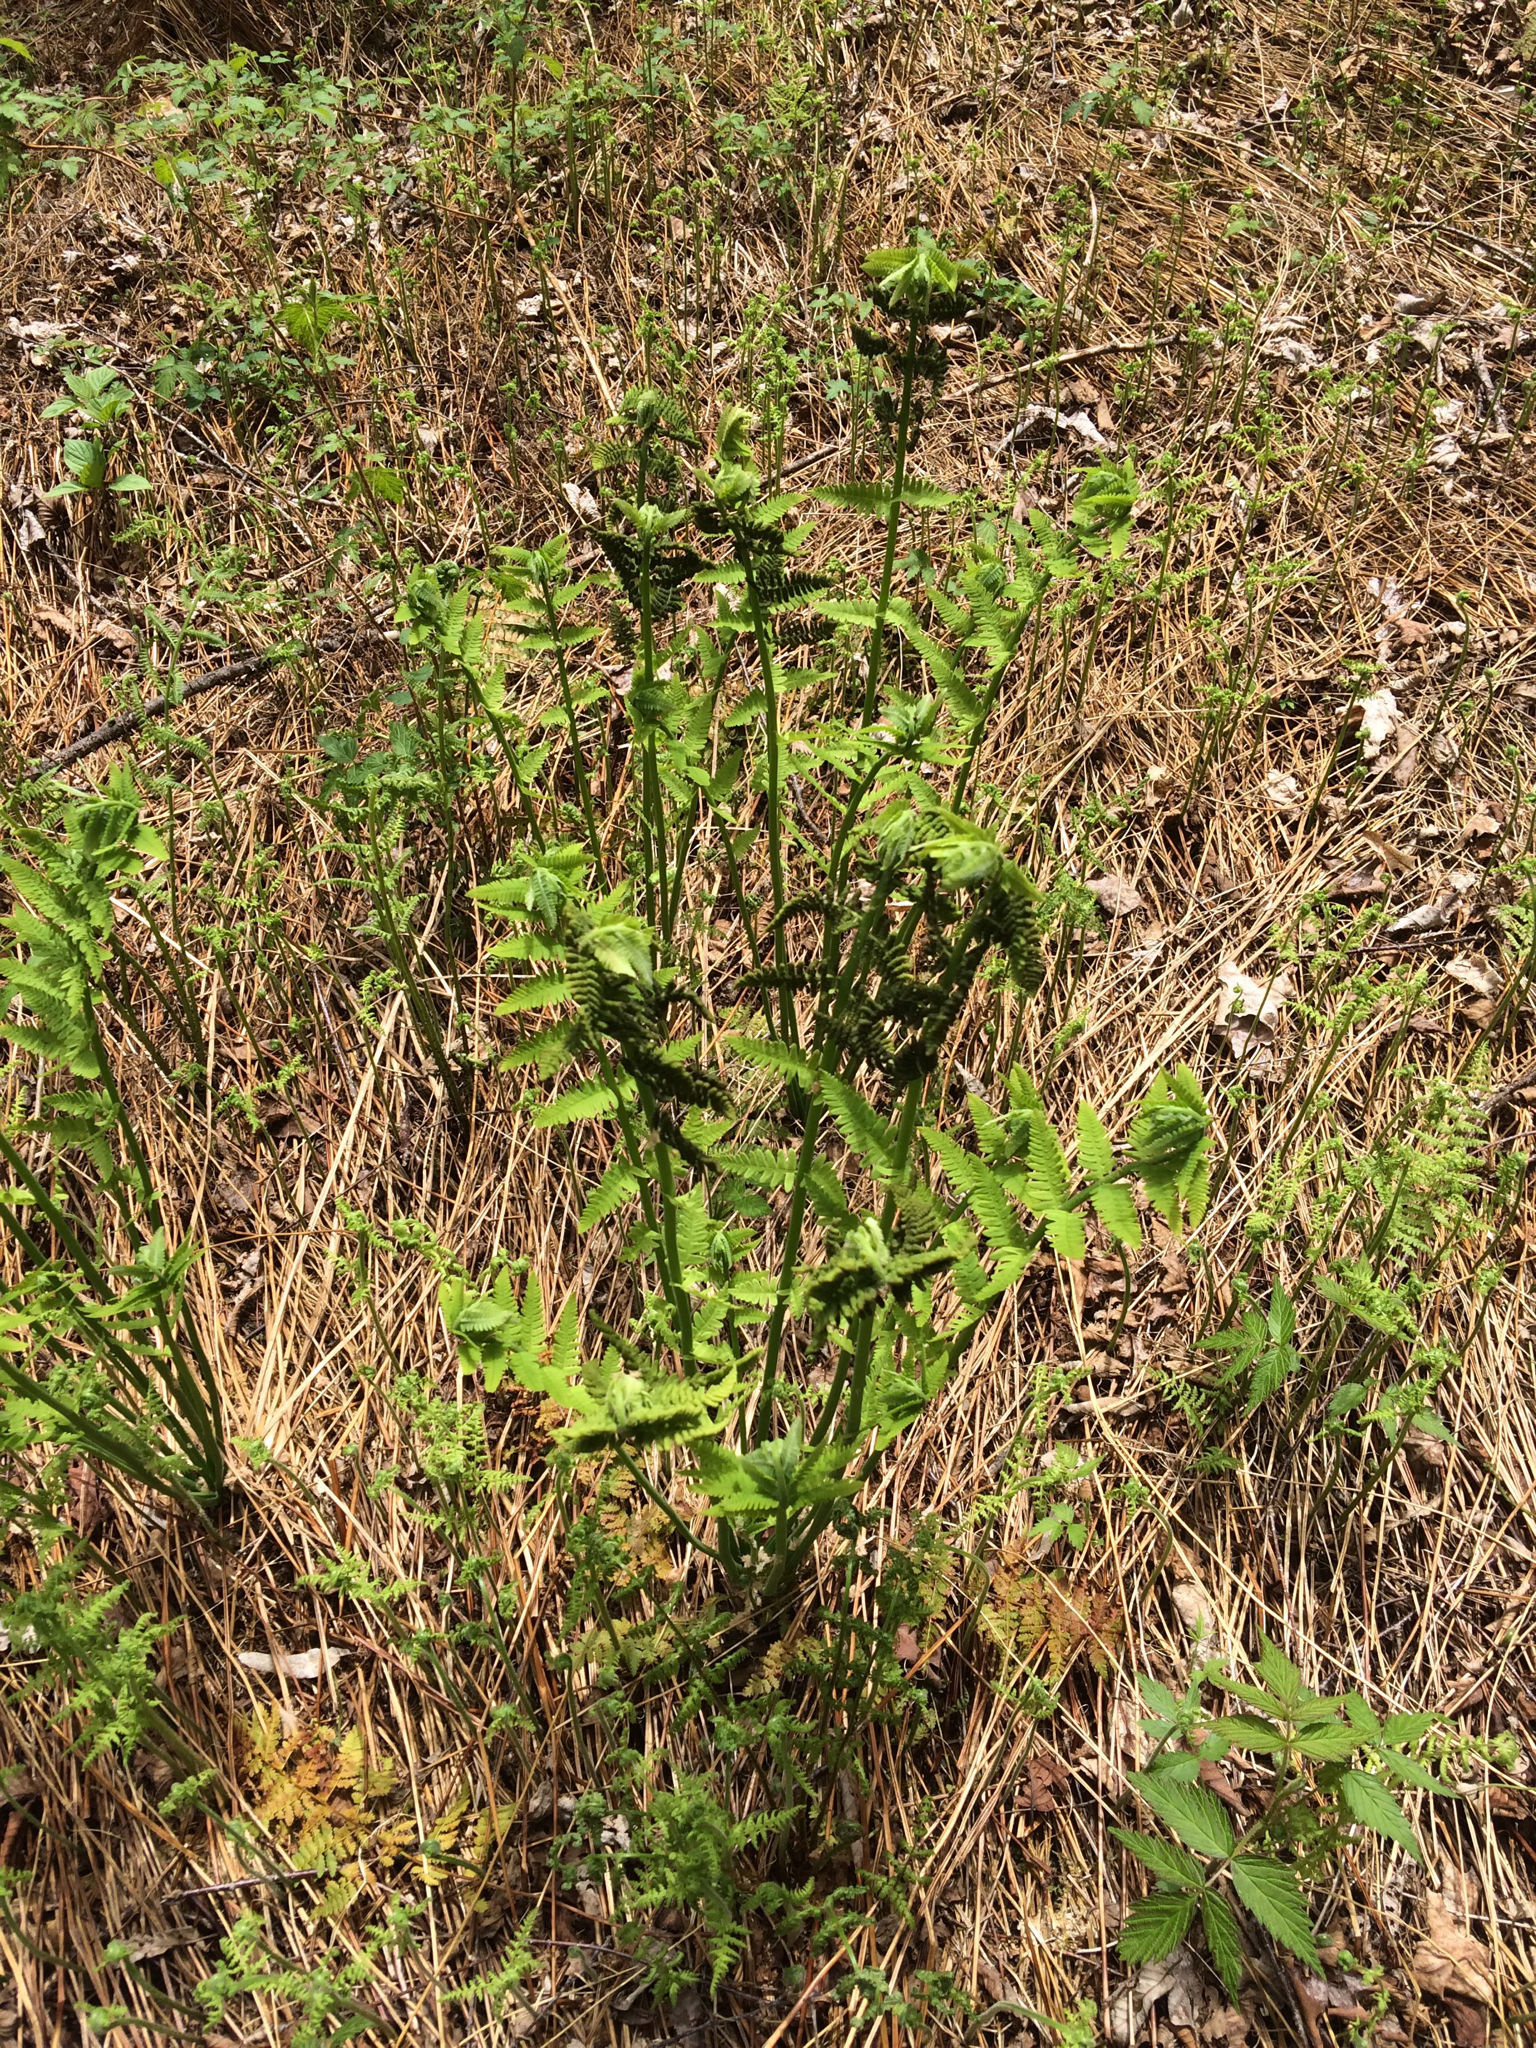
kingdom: Plantae
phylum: Tracheophyta
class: Polypodiopsida
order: Osmundales
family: Osmundaceae
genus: Claytosmunda
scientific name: Claytosmunda claytoniana
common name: Clayton's fern
